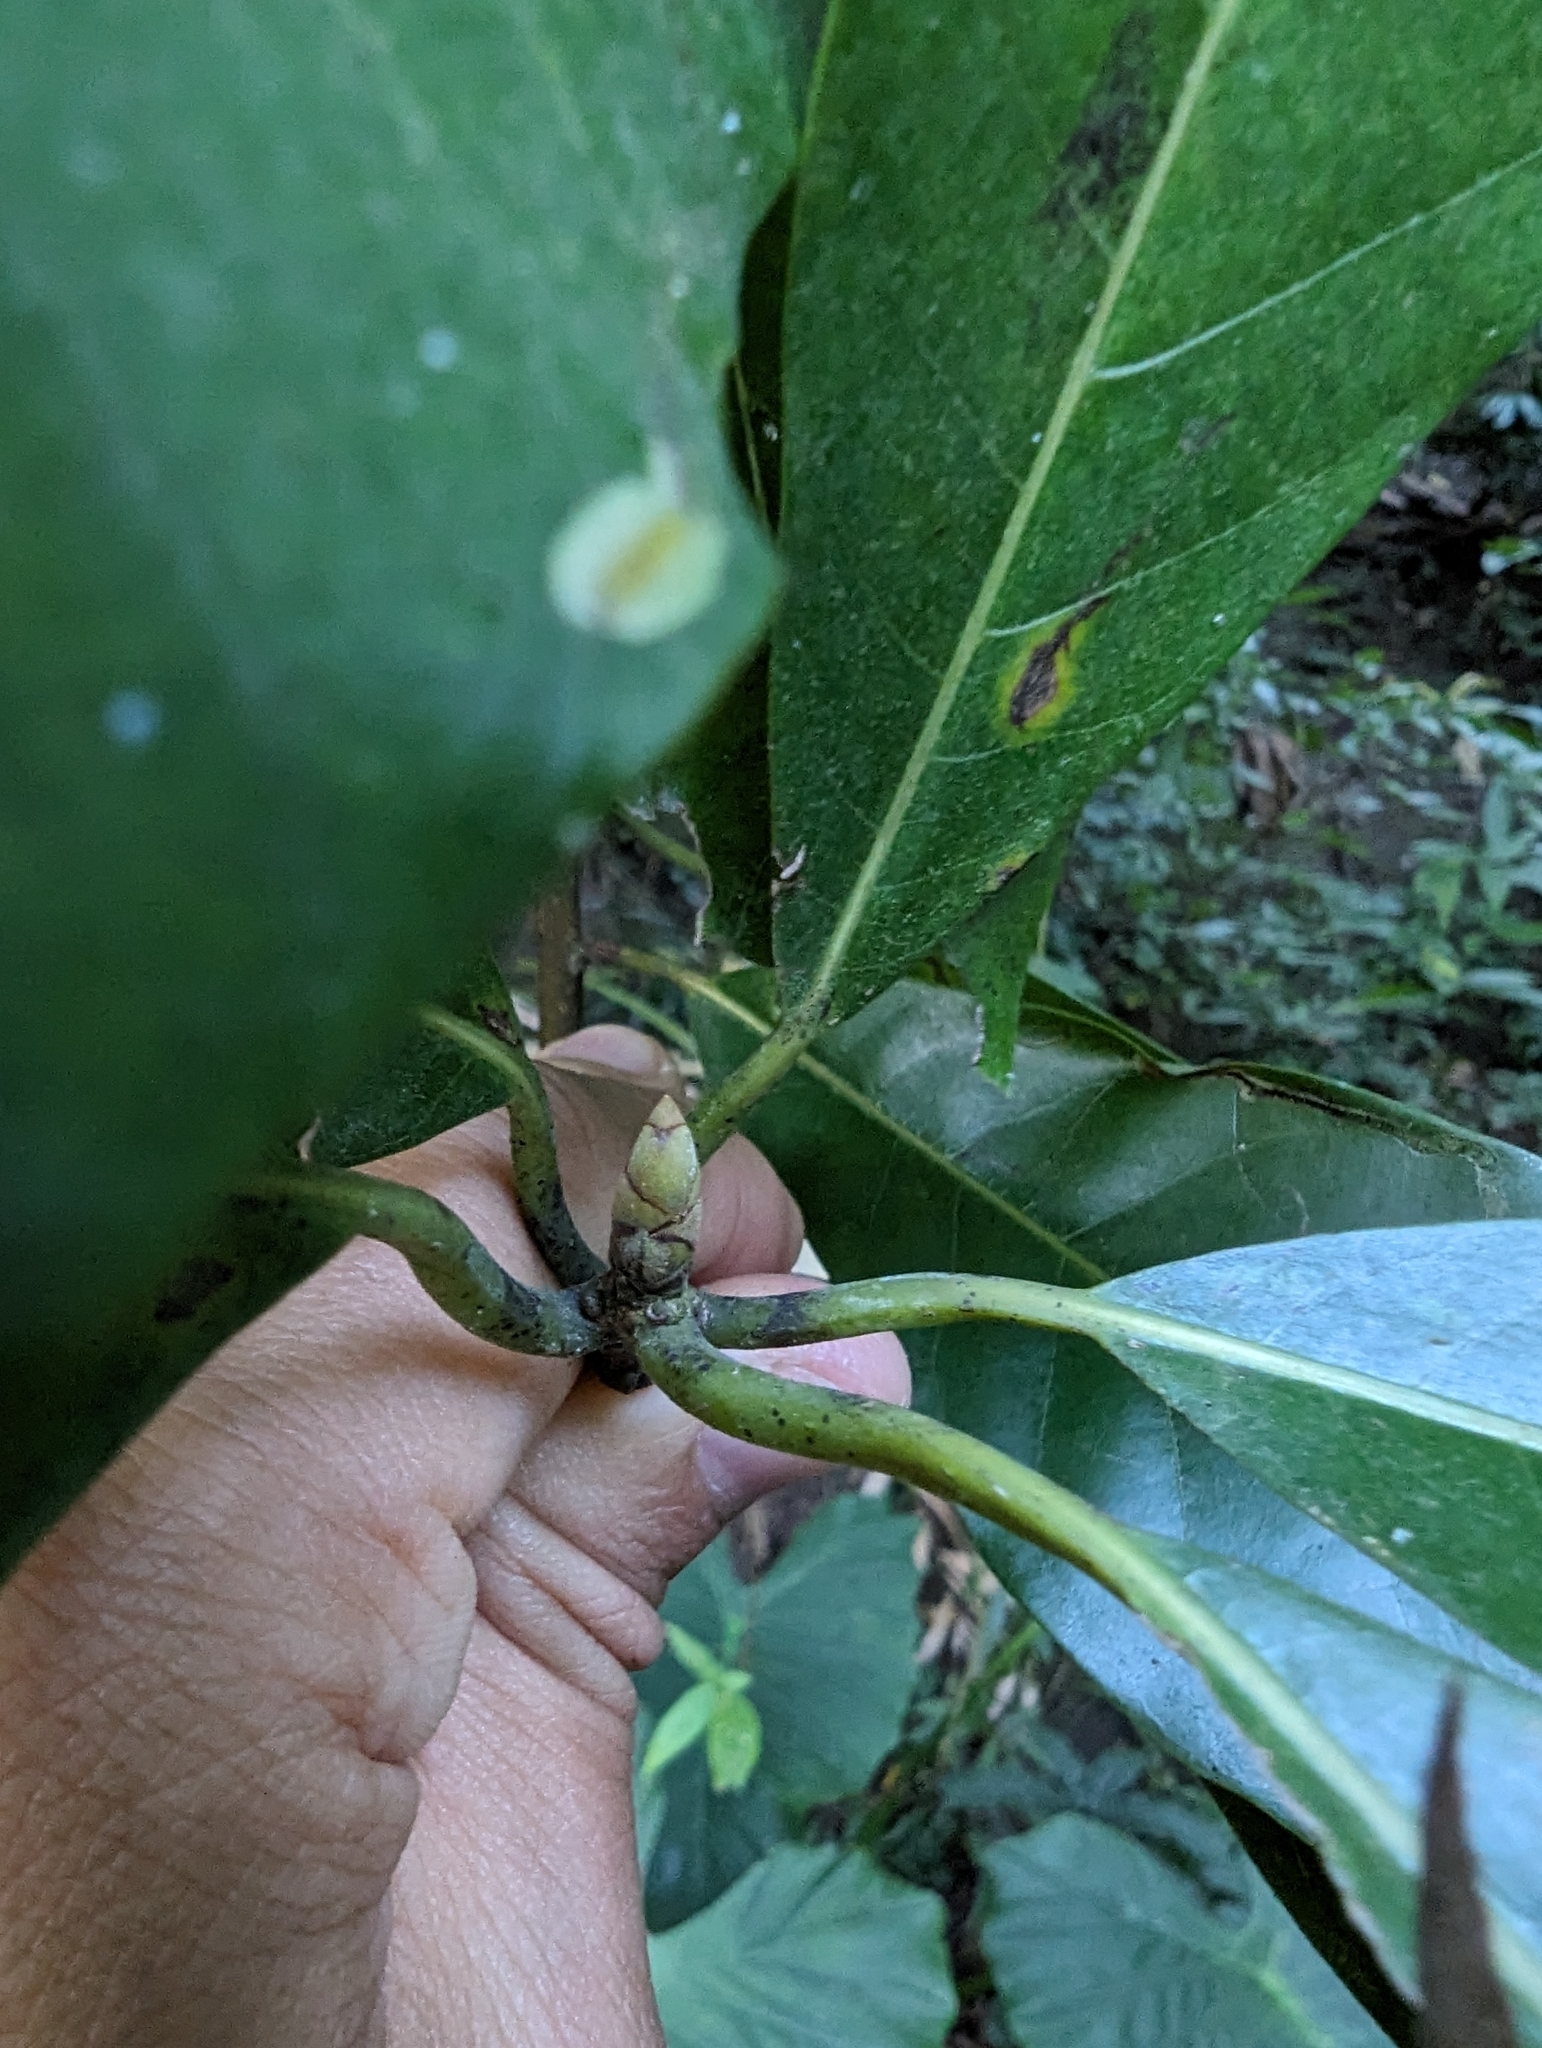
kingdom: Plantae
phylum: Tracheophyta
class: Magnoliopsida
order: Laurales
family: Lauraceae
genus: Lindera
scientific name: Lindera megaphylla
